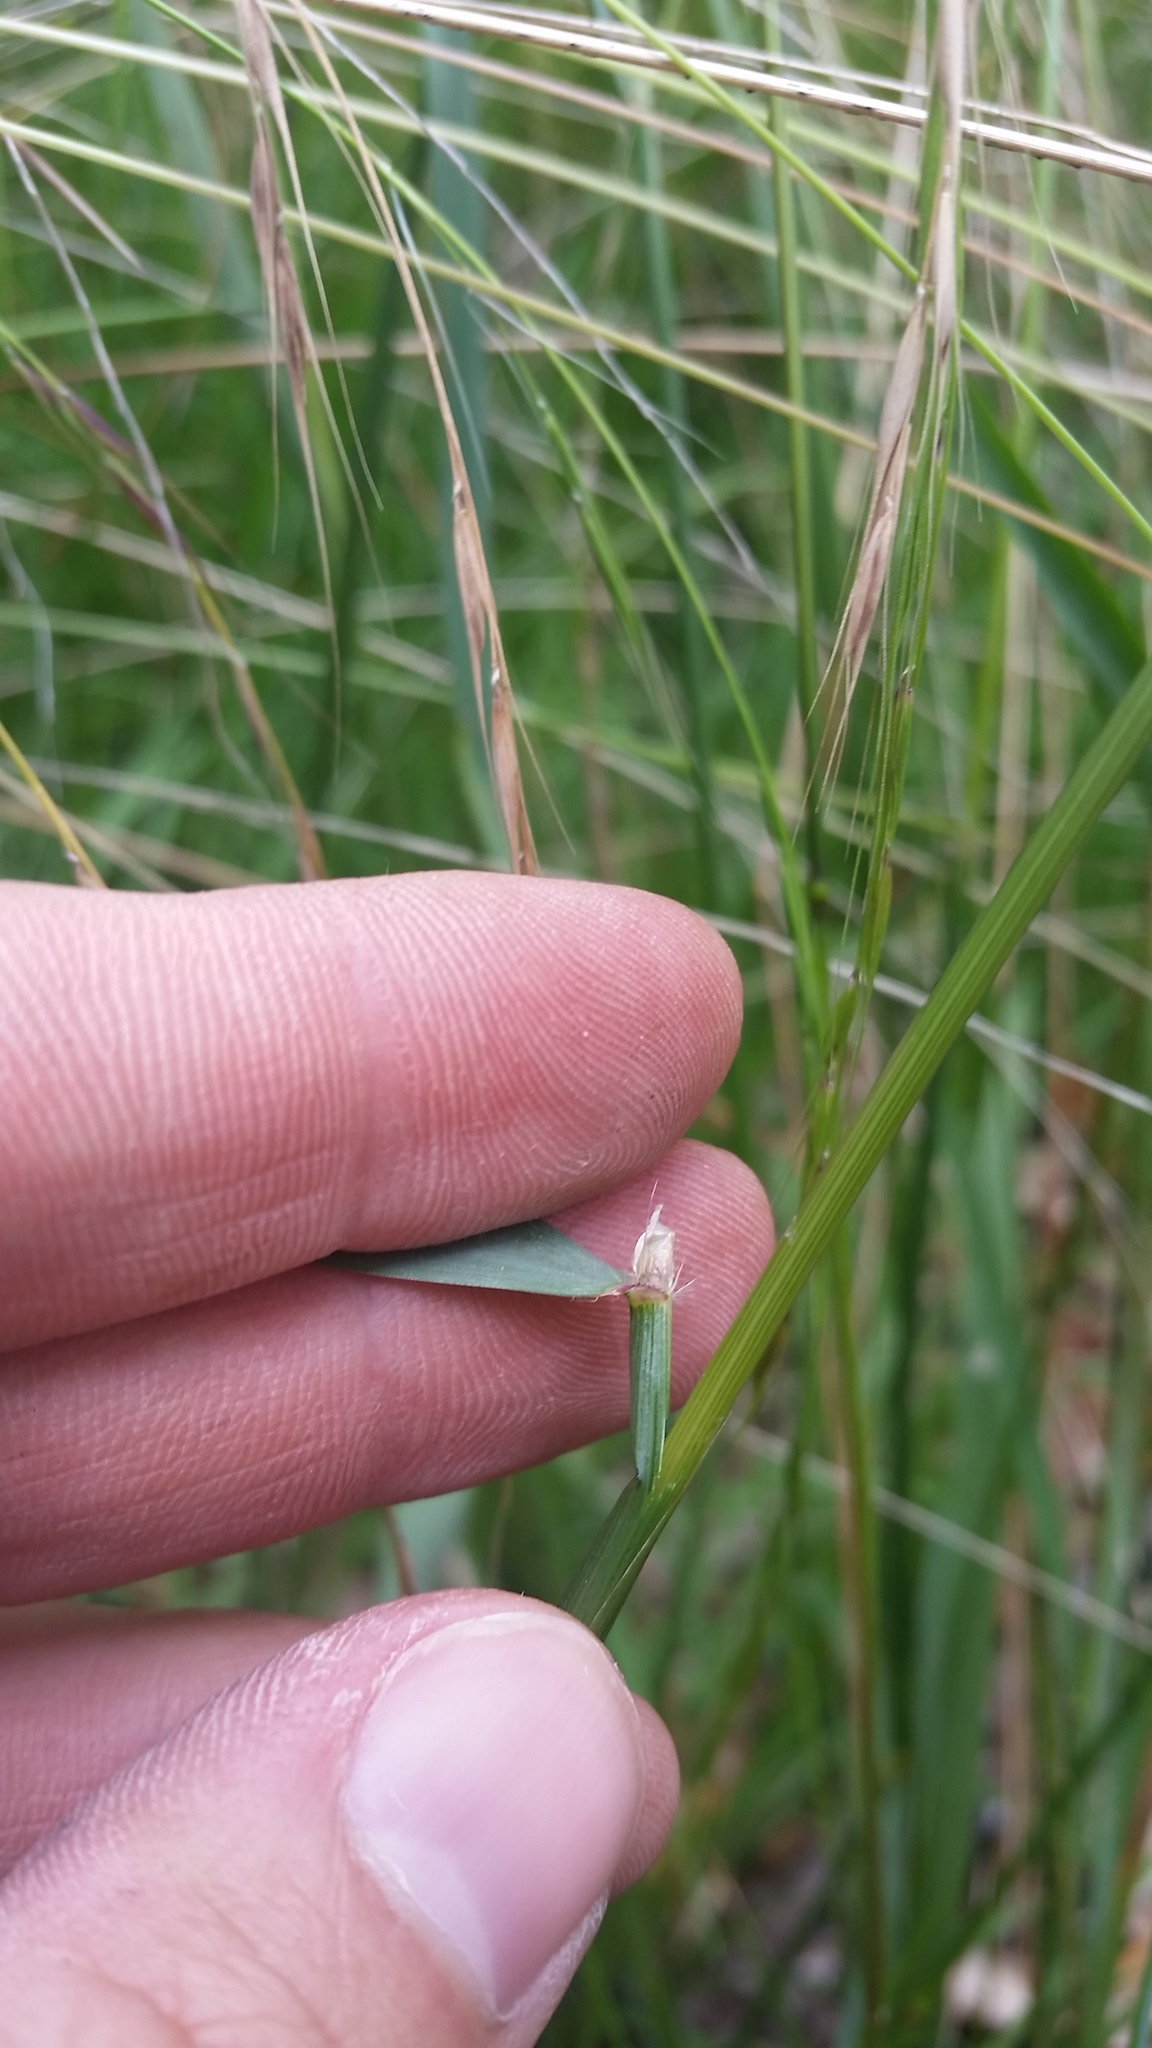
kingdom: Plantae
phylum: Tracheophyta
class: Liliopsida
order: Poales
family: Poaceae
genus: Anthoxanthum
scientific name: Anthoxanthum odoratum
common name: Sweet vernalgrass
